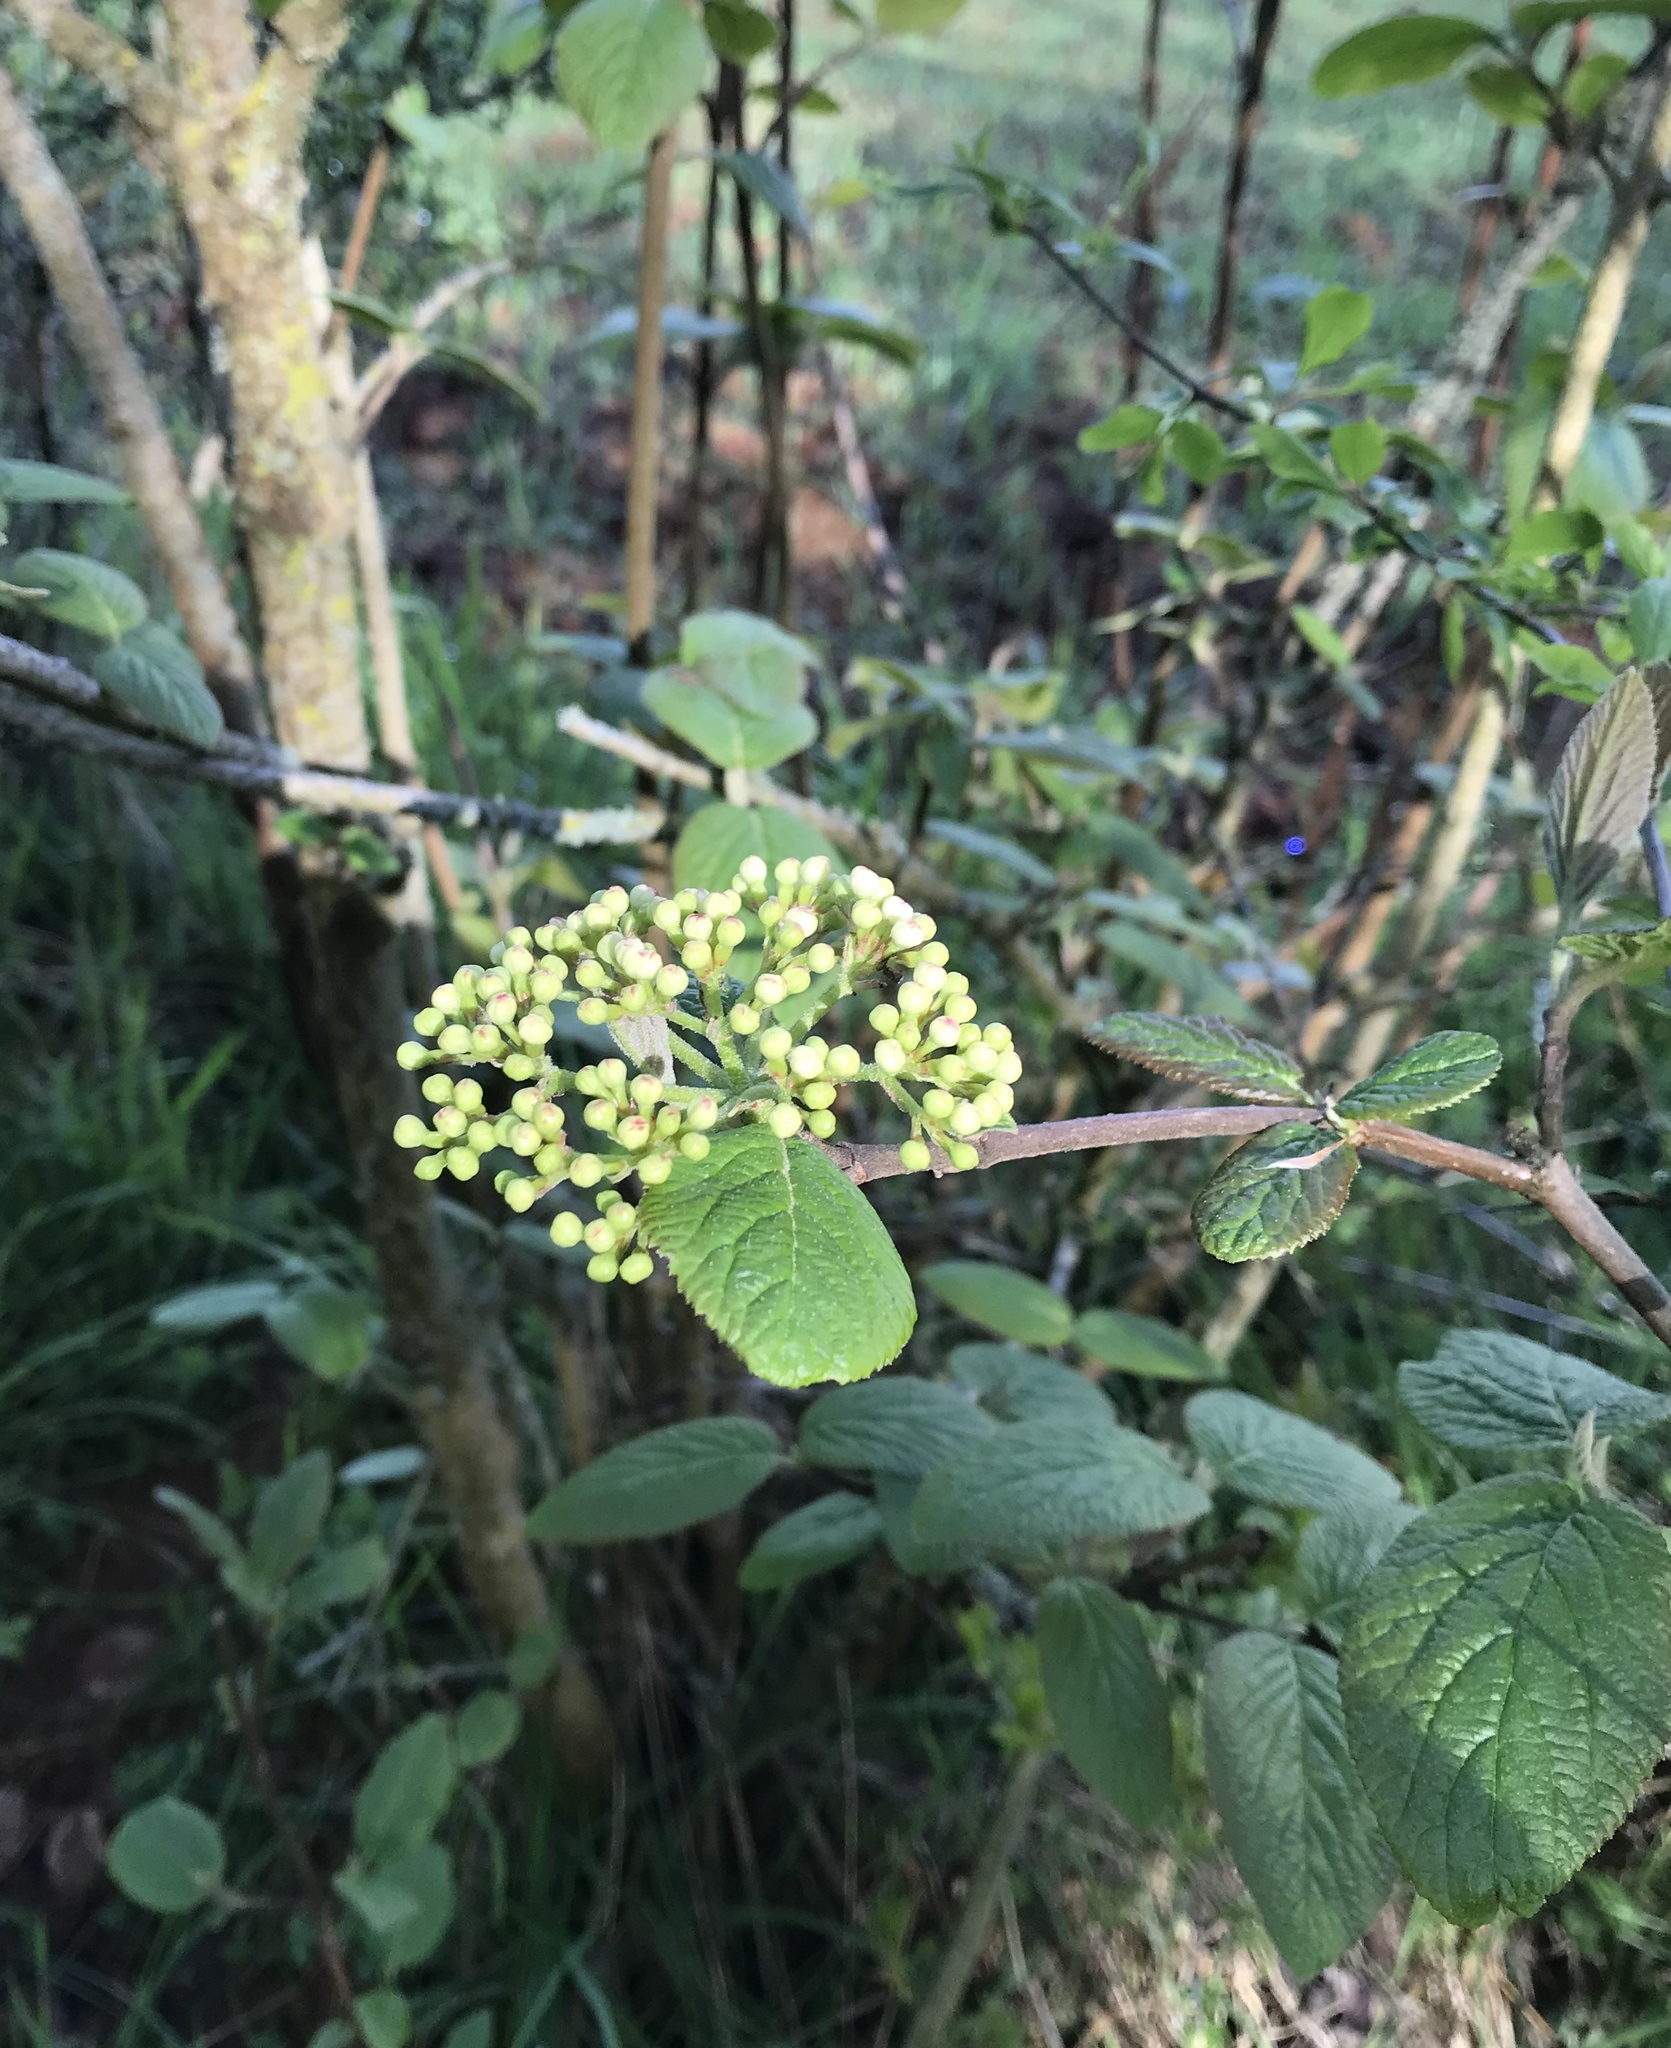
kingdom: Plantae
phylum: Tracheophyta
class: Magnoliopsida
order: Dipsacales
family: Viburnaceae
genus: Viburnum
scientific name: Viburnum lantana
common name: Wayfaring tree
